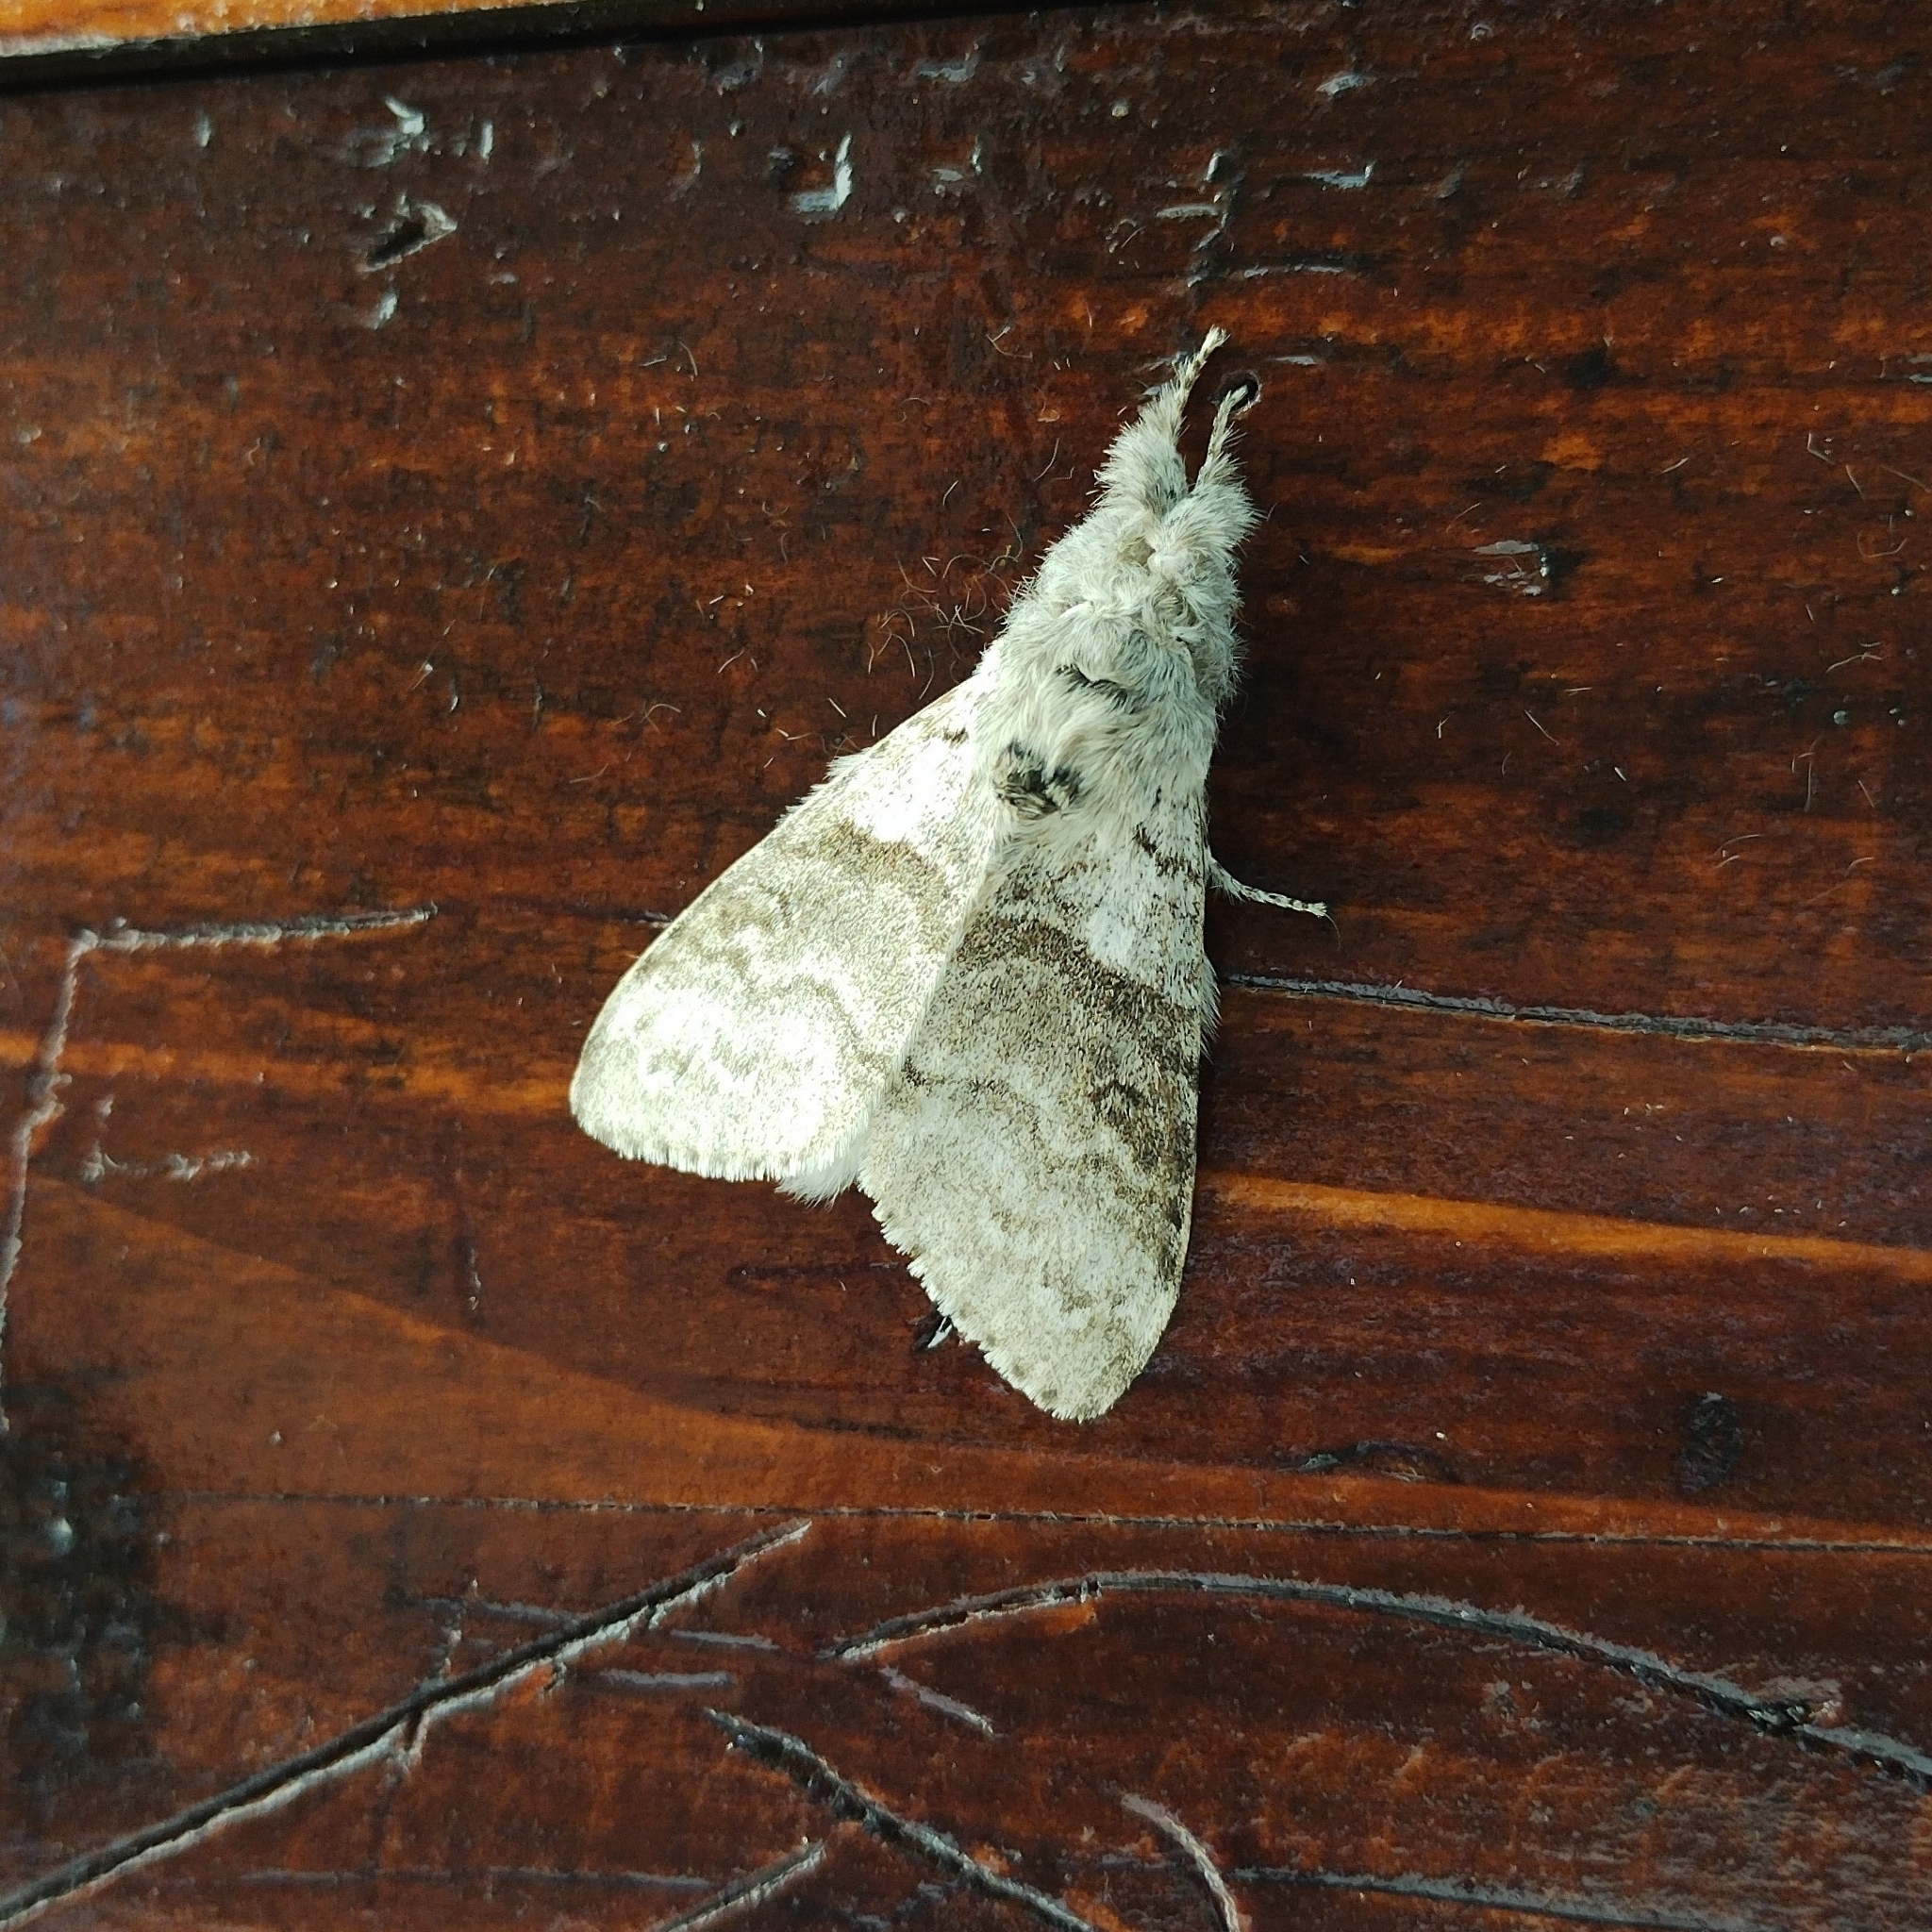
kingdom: Animalia
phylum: Arthropoda
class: Insecta
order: Lepidoptera
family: Erebidae
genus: Calliteara
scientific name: Calliteara pudibunda
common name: Pale tussock
